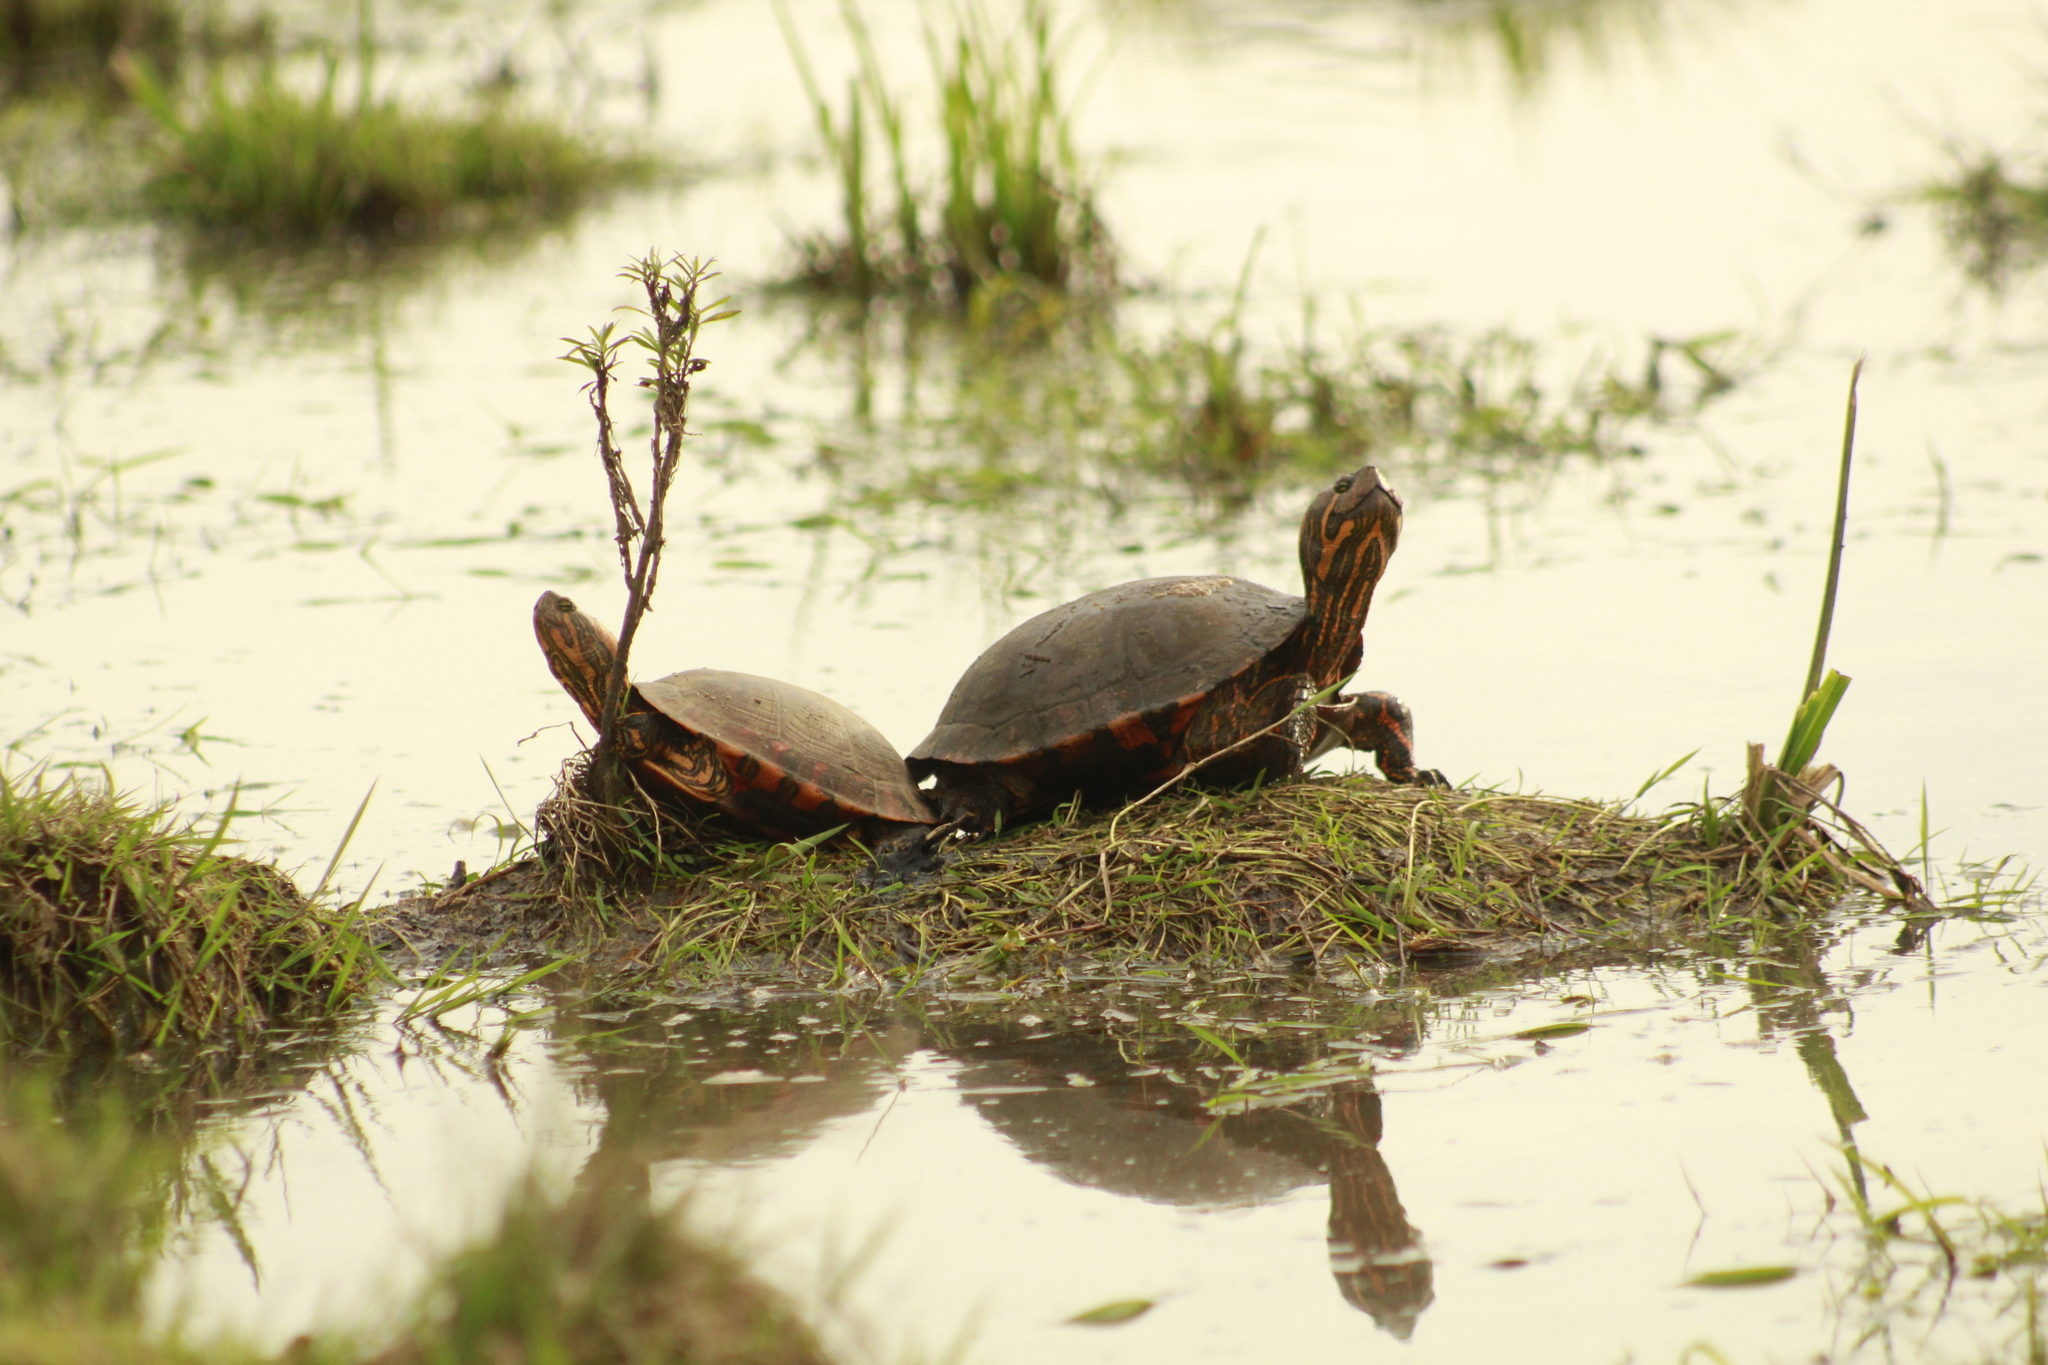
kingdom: Animalia
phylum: Chordata
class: Testudines
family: Emydidae
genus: Trachemys
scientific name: Trachemys dorbigni
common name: Black-bellied slider
